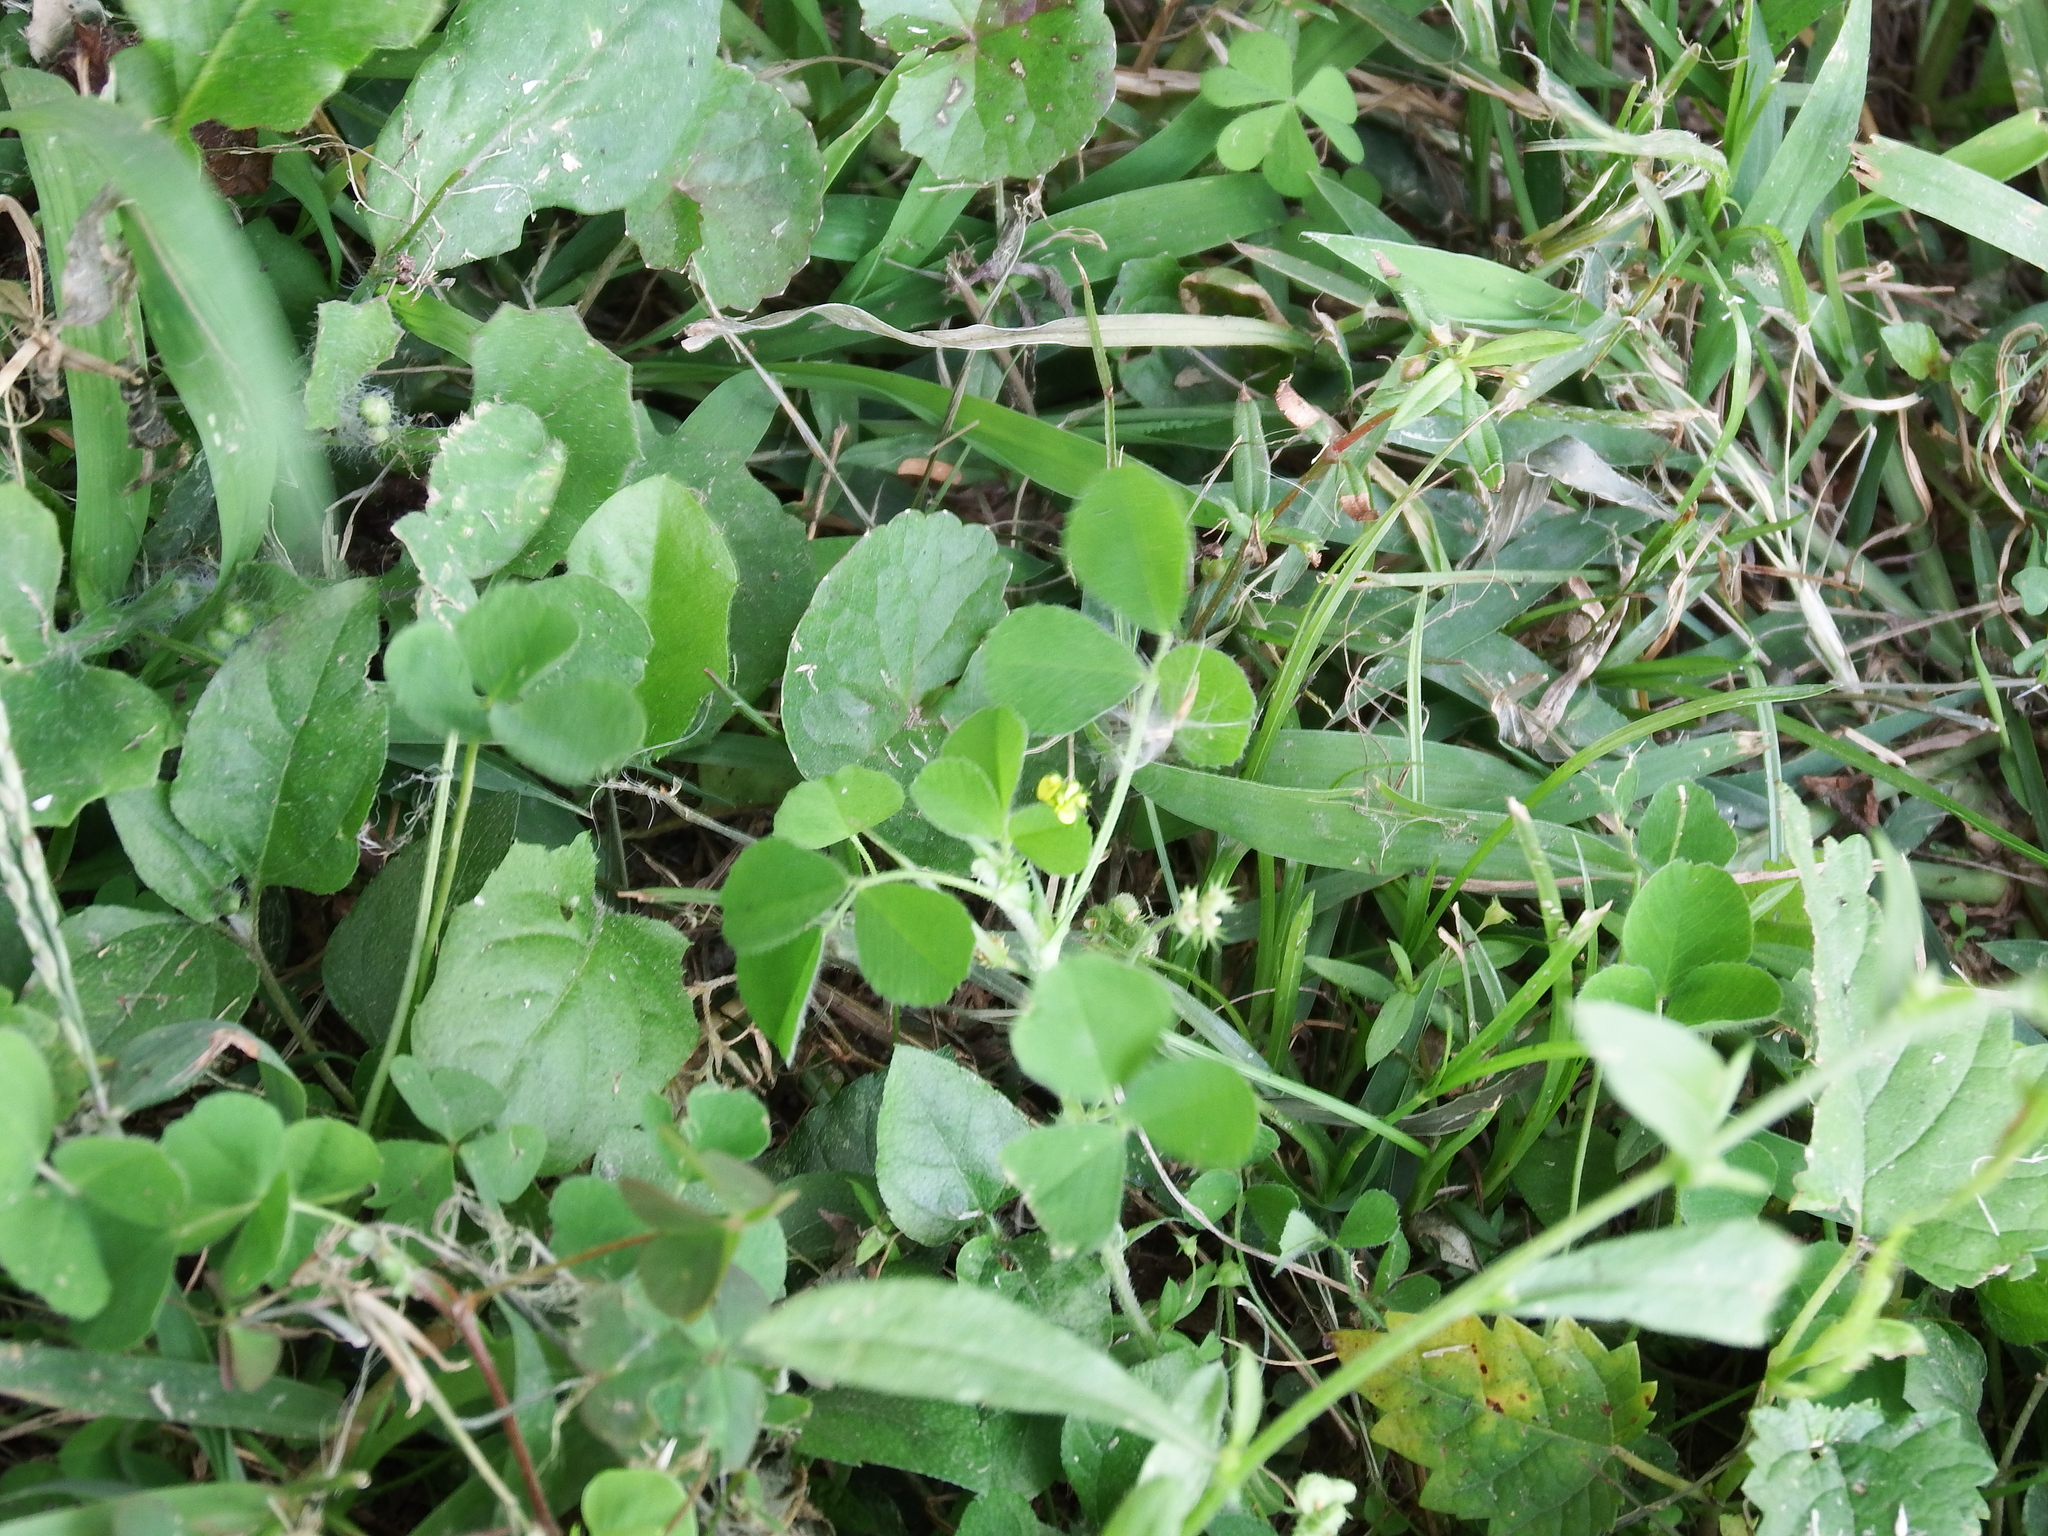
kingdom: Plantae
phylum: Tracheophyta
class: Magnoliopsida
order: Fabales
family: Fabaceae
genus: Medicago
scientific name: Medicago lupulina
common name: Black medick
